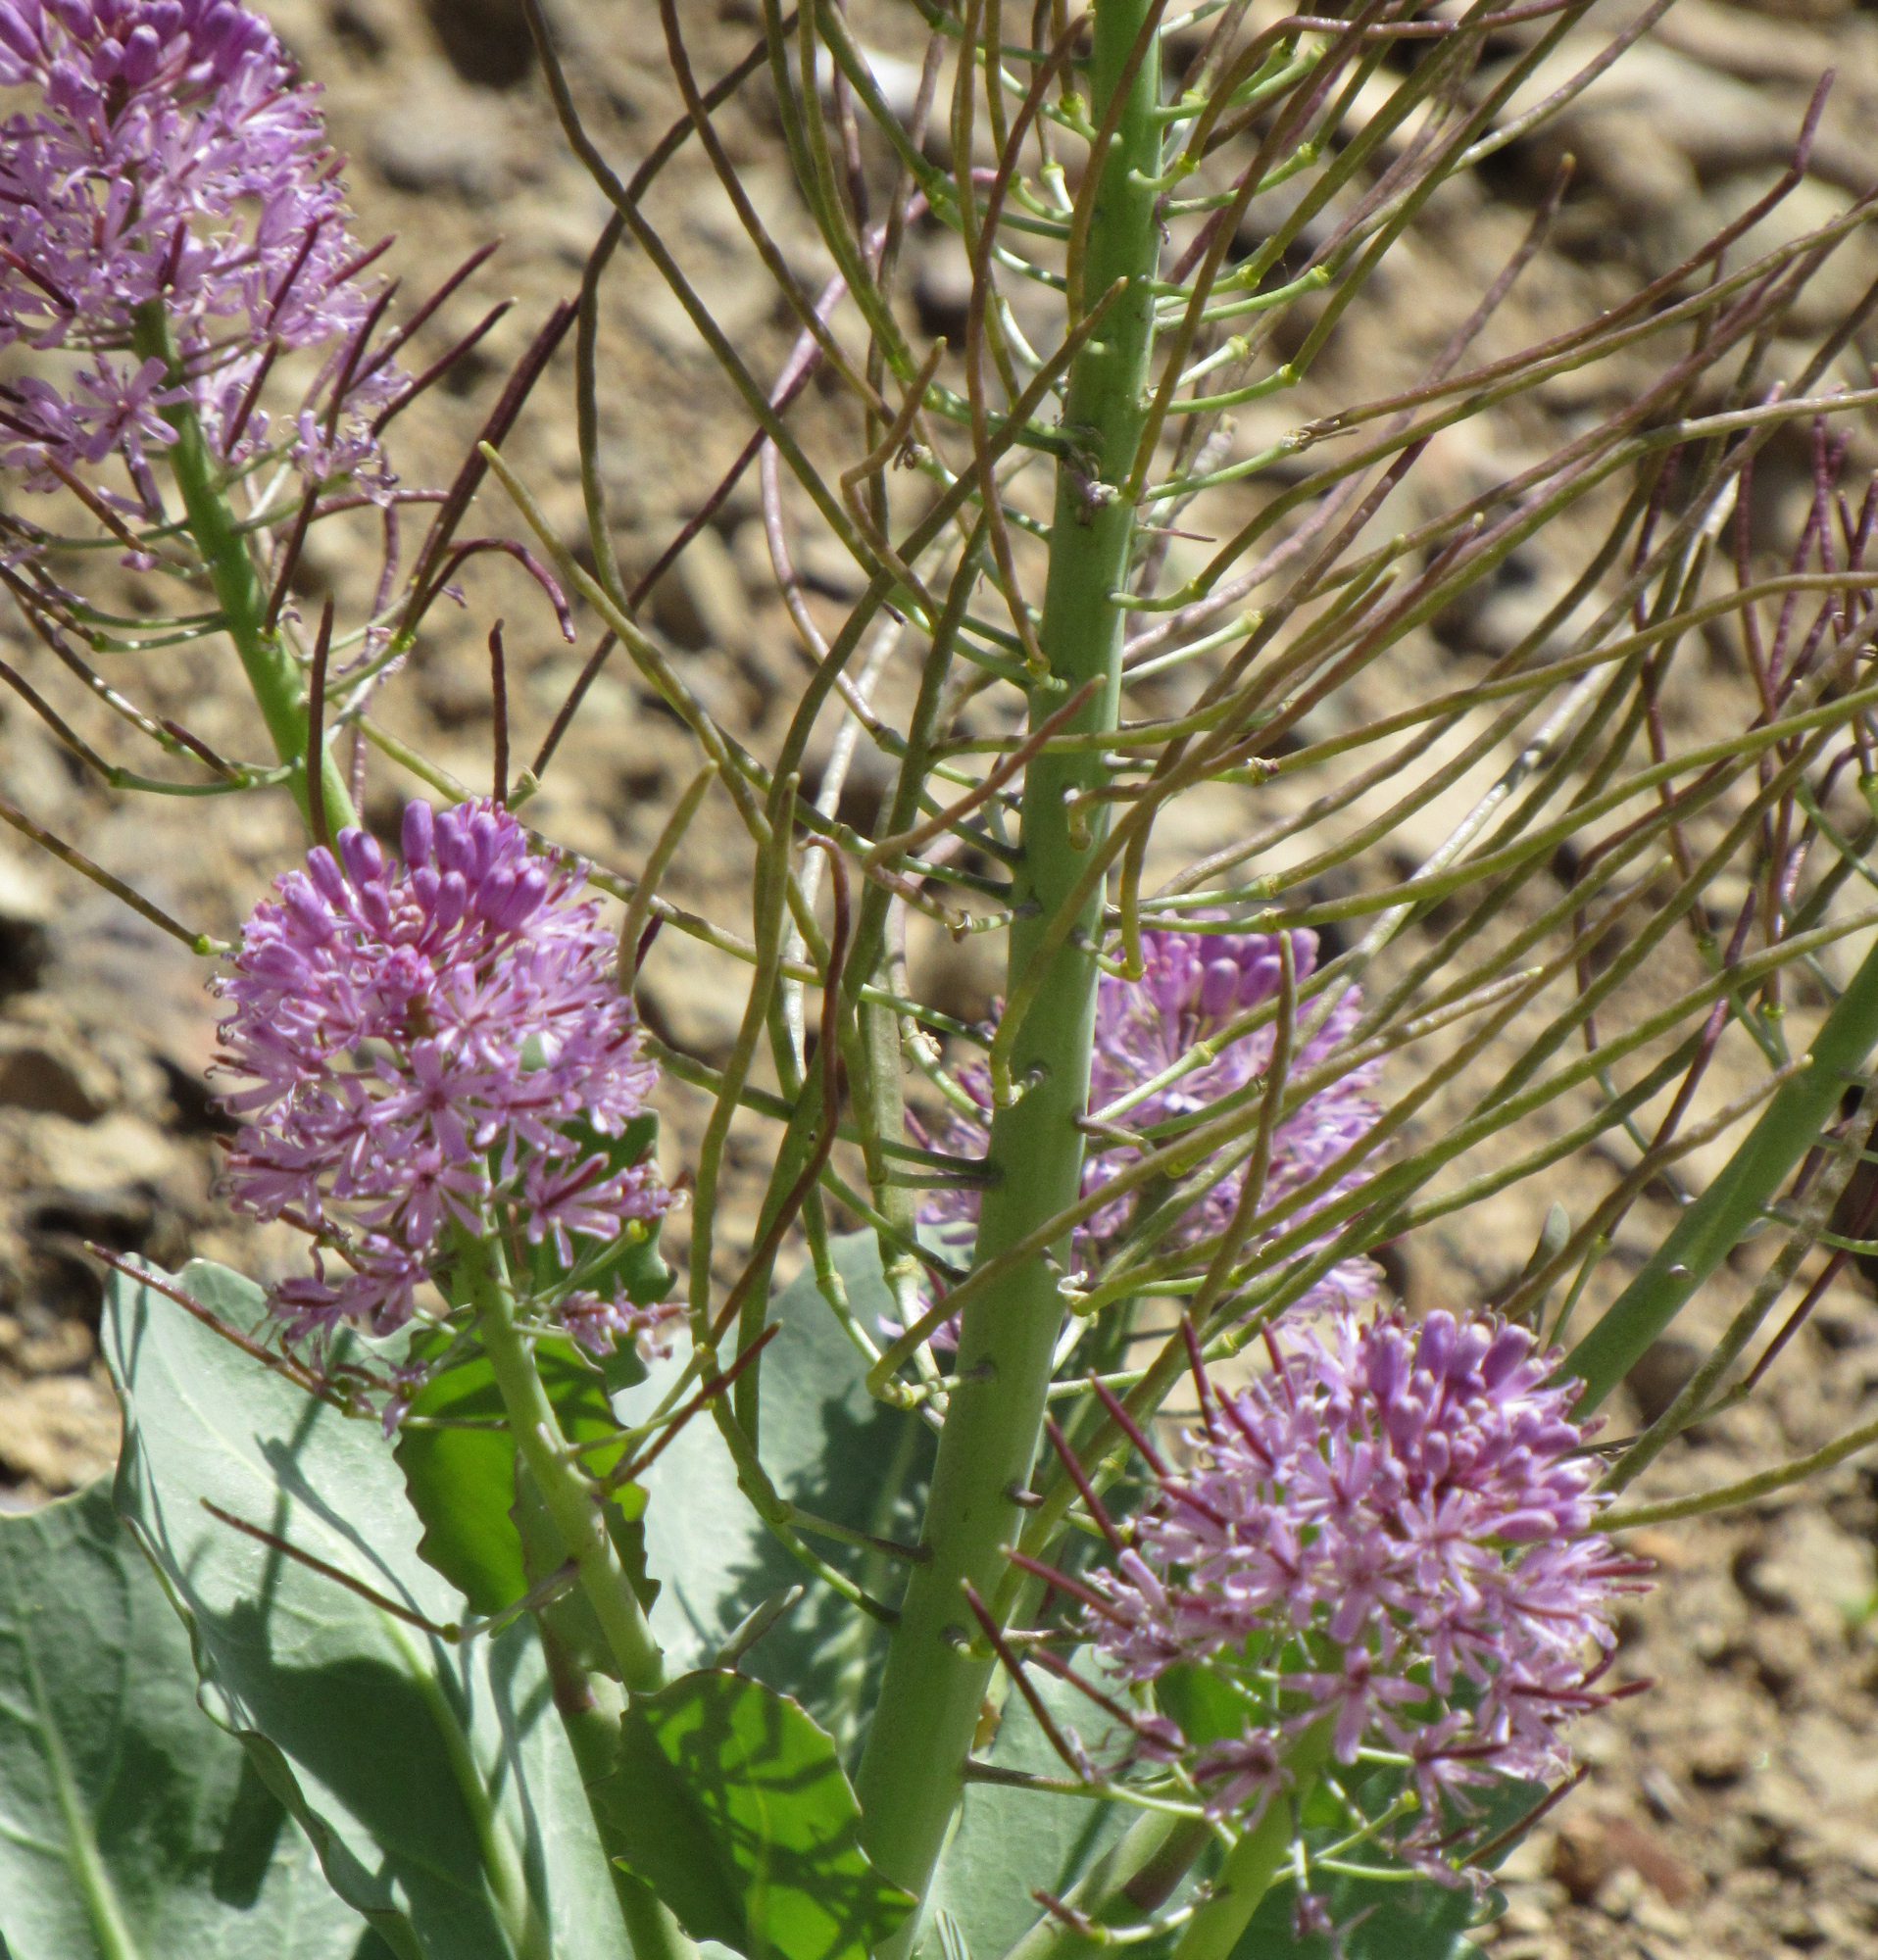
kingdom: Plantae
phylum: Tracheophyta
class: Magnoliopsida
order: Brassicales
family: Brassicaceae
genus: Thelypodium
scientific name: Thelypodium repandum
